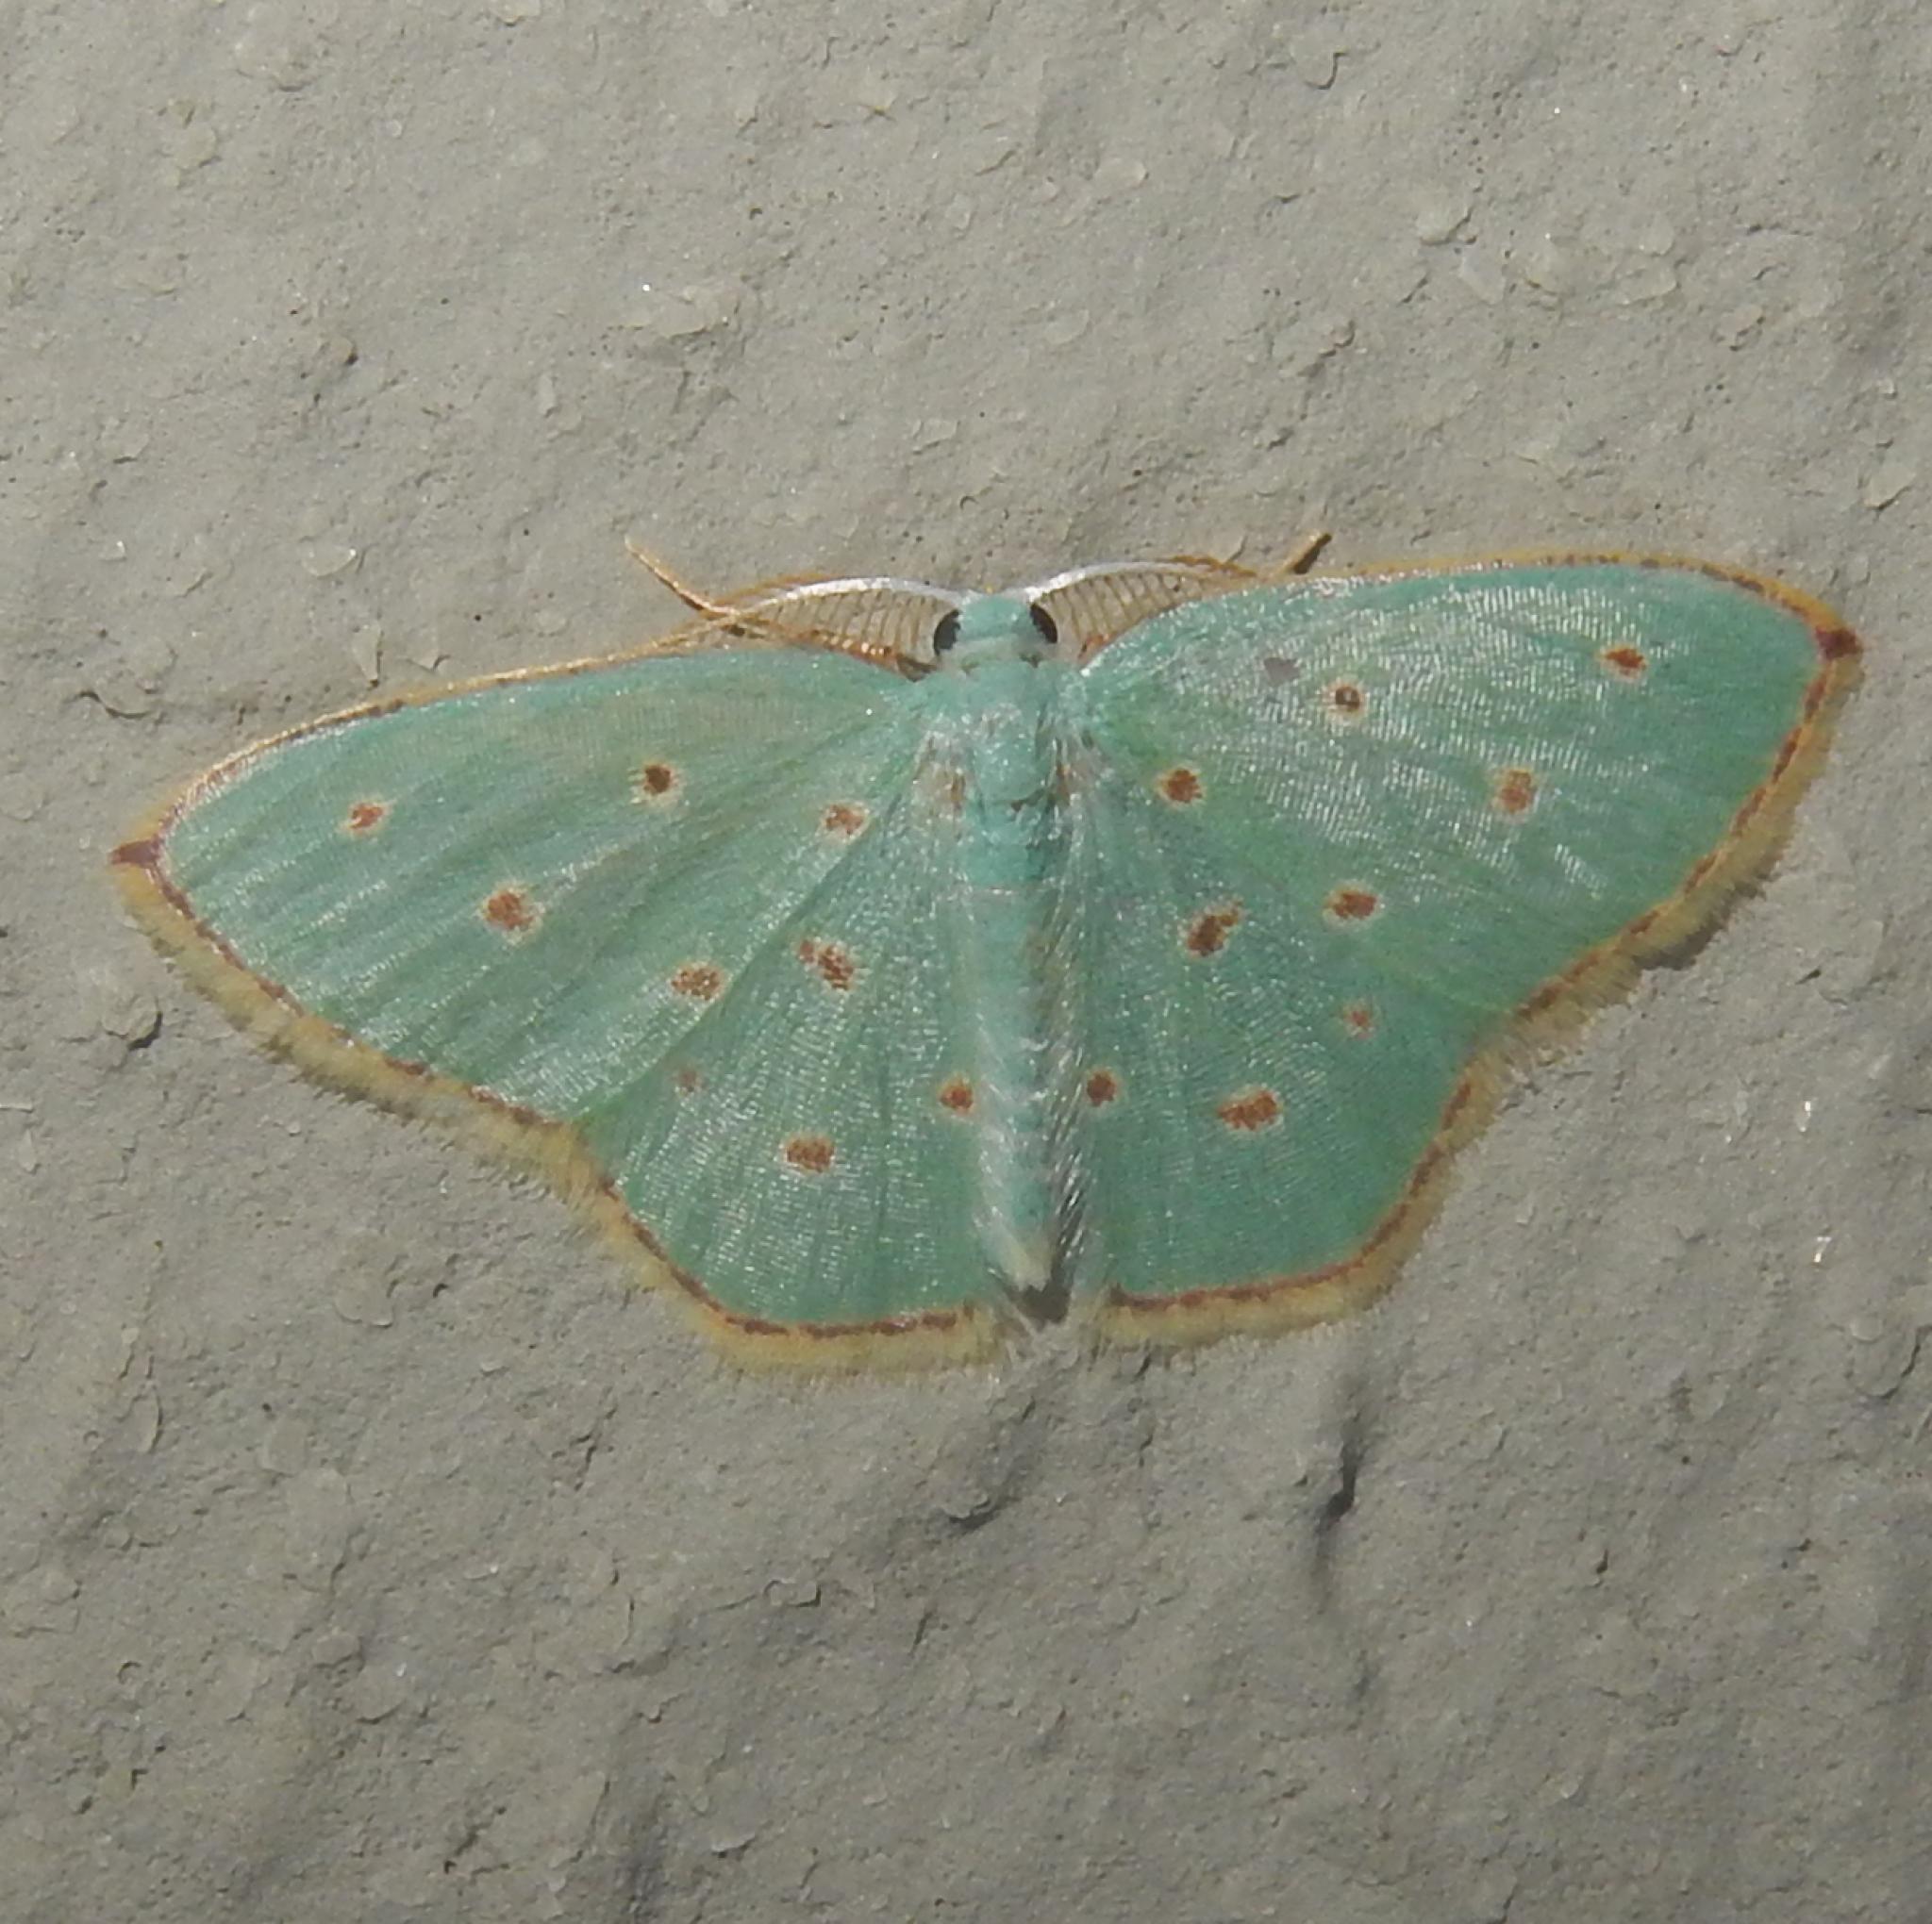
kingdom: Animalia
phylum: Arthropoda
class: Insecta
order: Lepidoptera
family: Geometridae
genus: Comostolopsis
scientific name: Comostolopsis stillata
